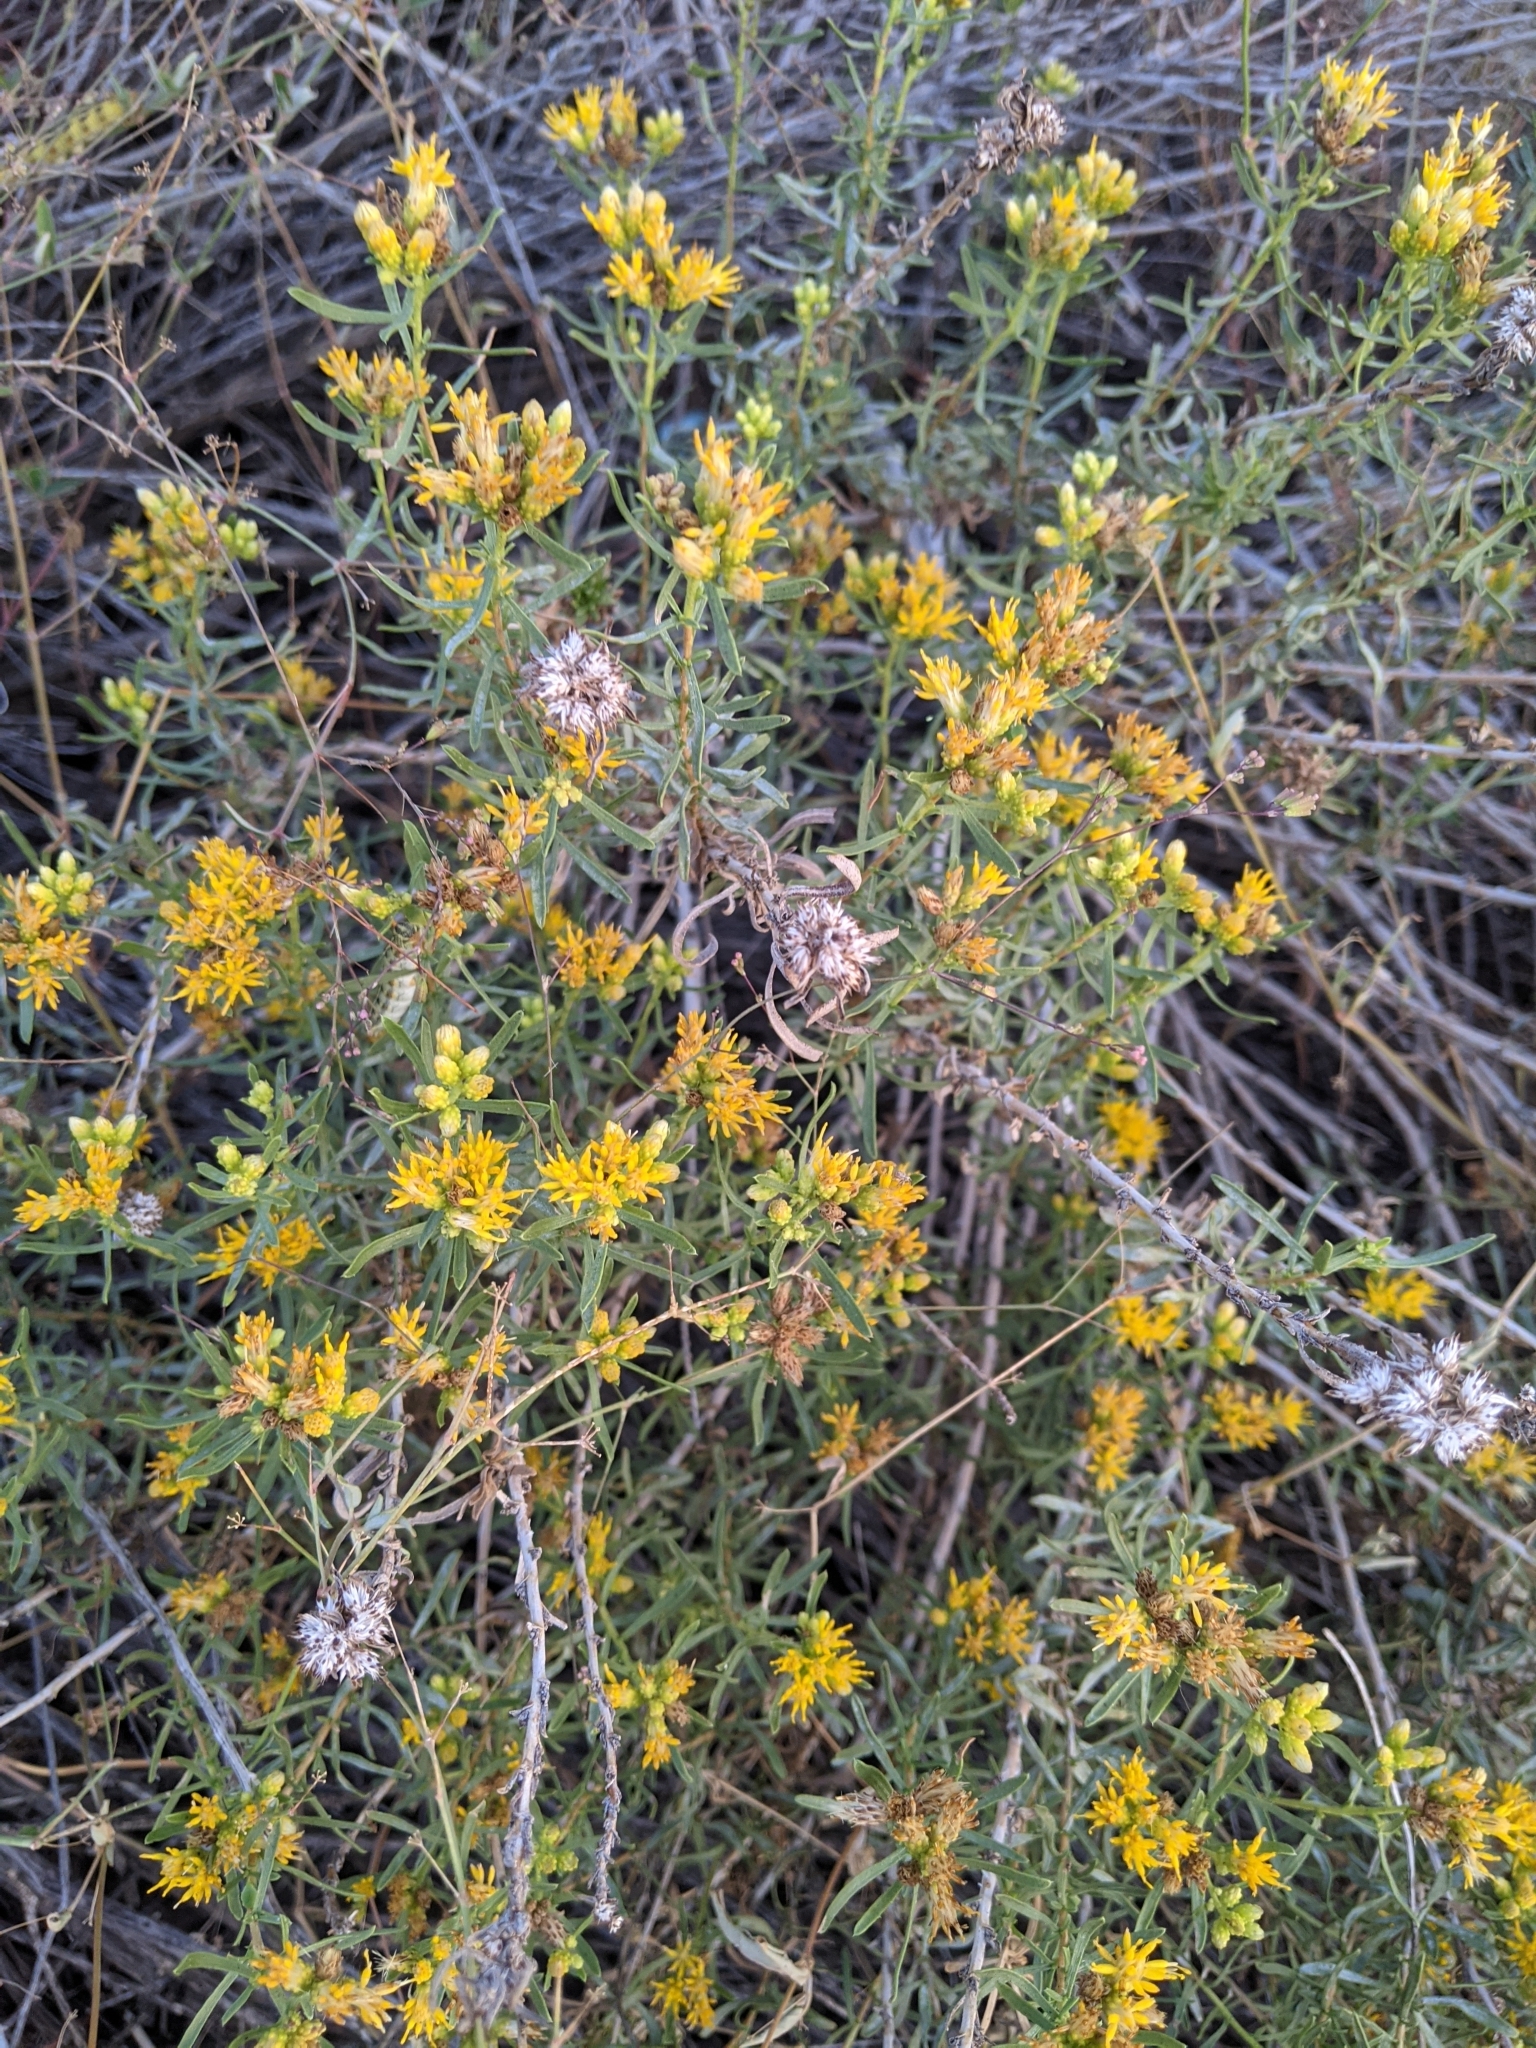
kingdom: Plantae
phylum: Tracheophyta
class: Magnoliopsida
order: Asterales
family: Asteraceae
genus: Isocoma
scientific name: Isocoma acradenia
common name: Alkali jimmyweed
